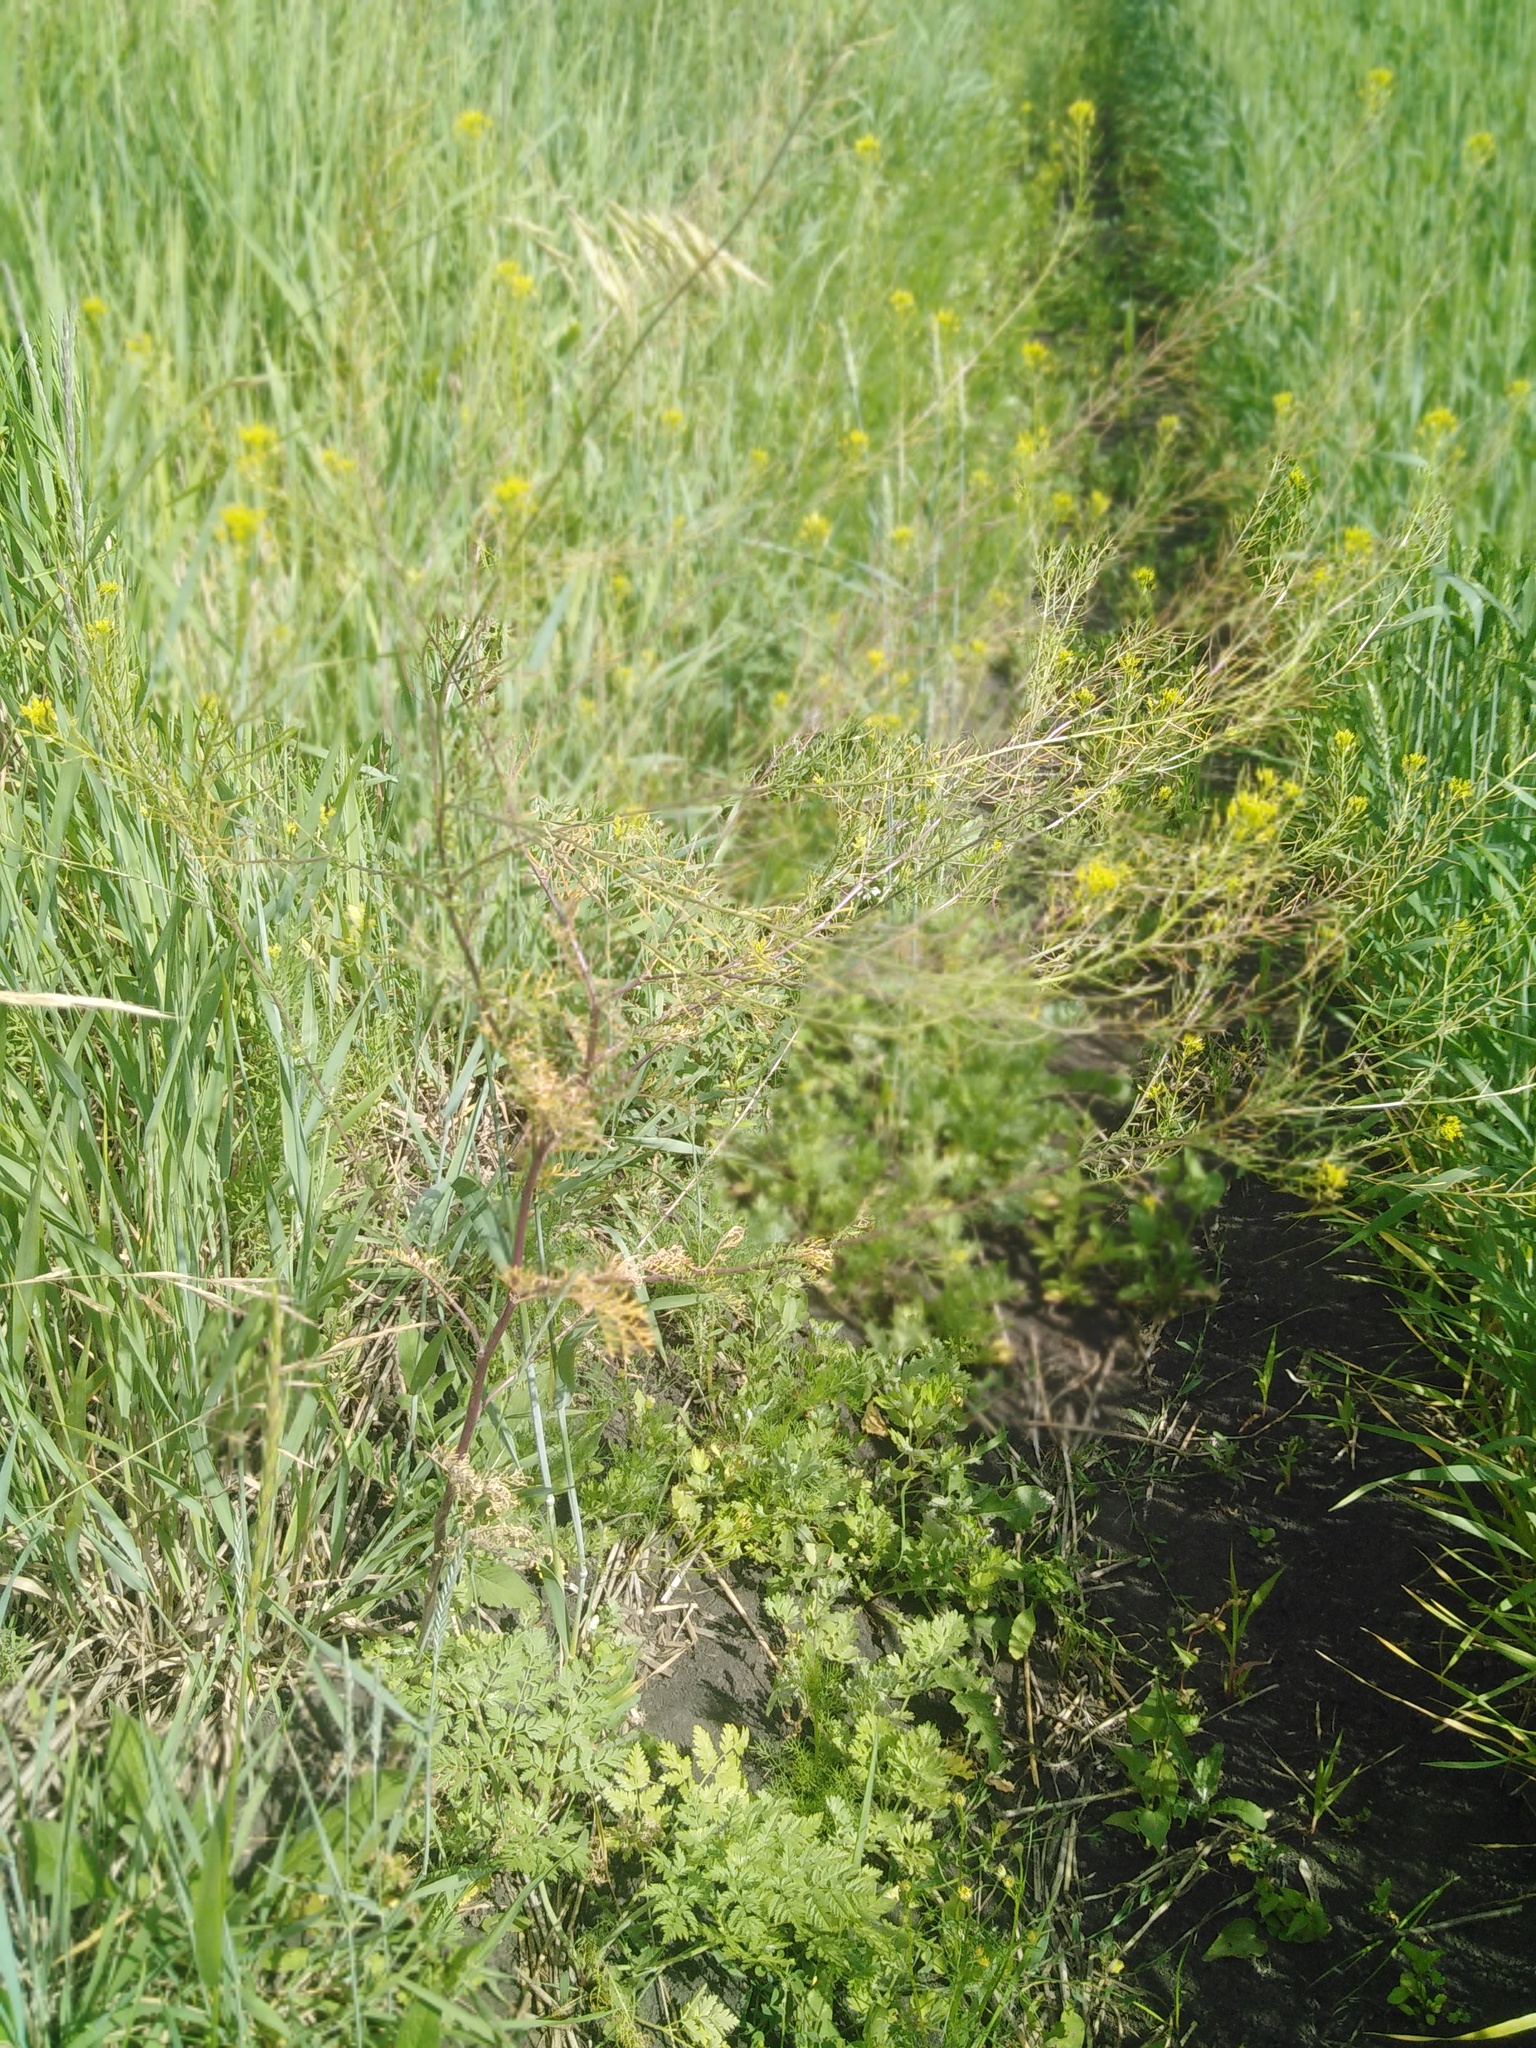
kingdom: Plantae
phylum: Tracheophyta
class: Magnoliopsida
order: Brassicales
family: Brassicaceae
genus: Descurainia
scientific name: Descurainia sophia
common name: Flixweed
